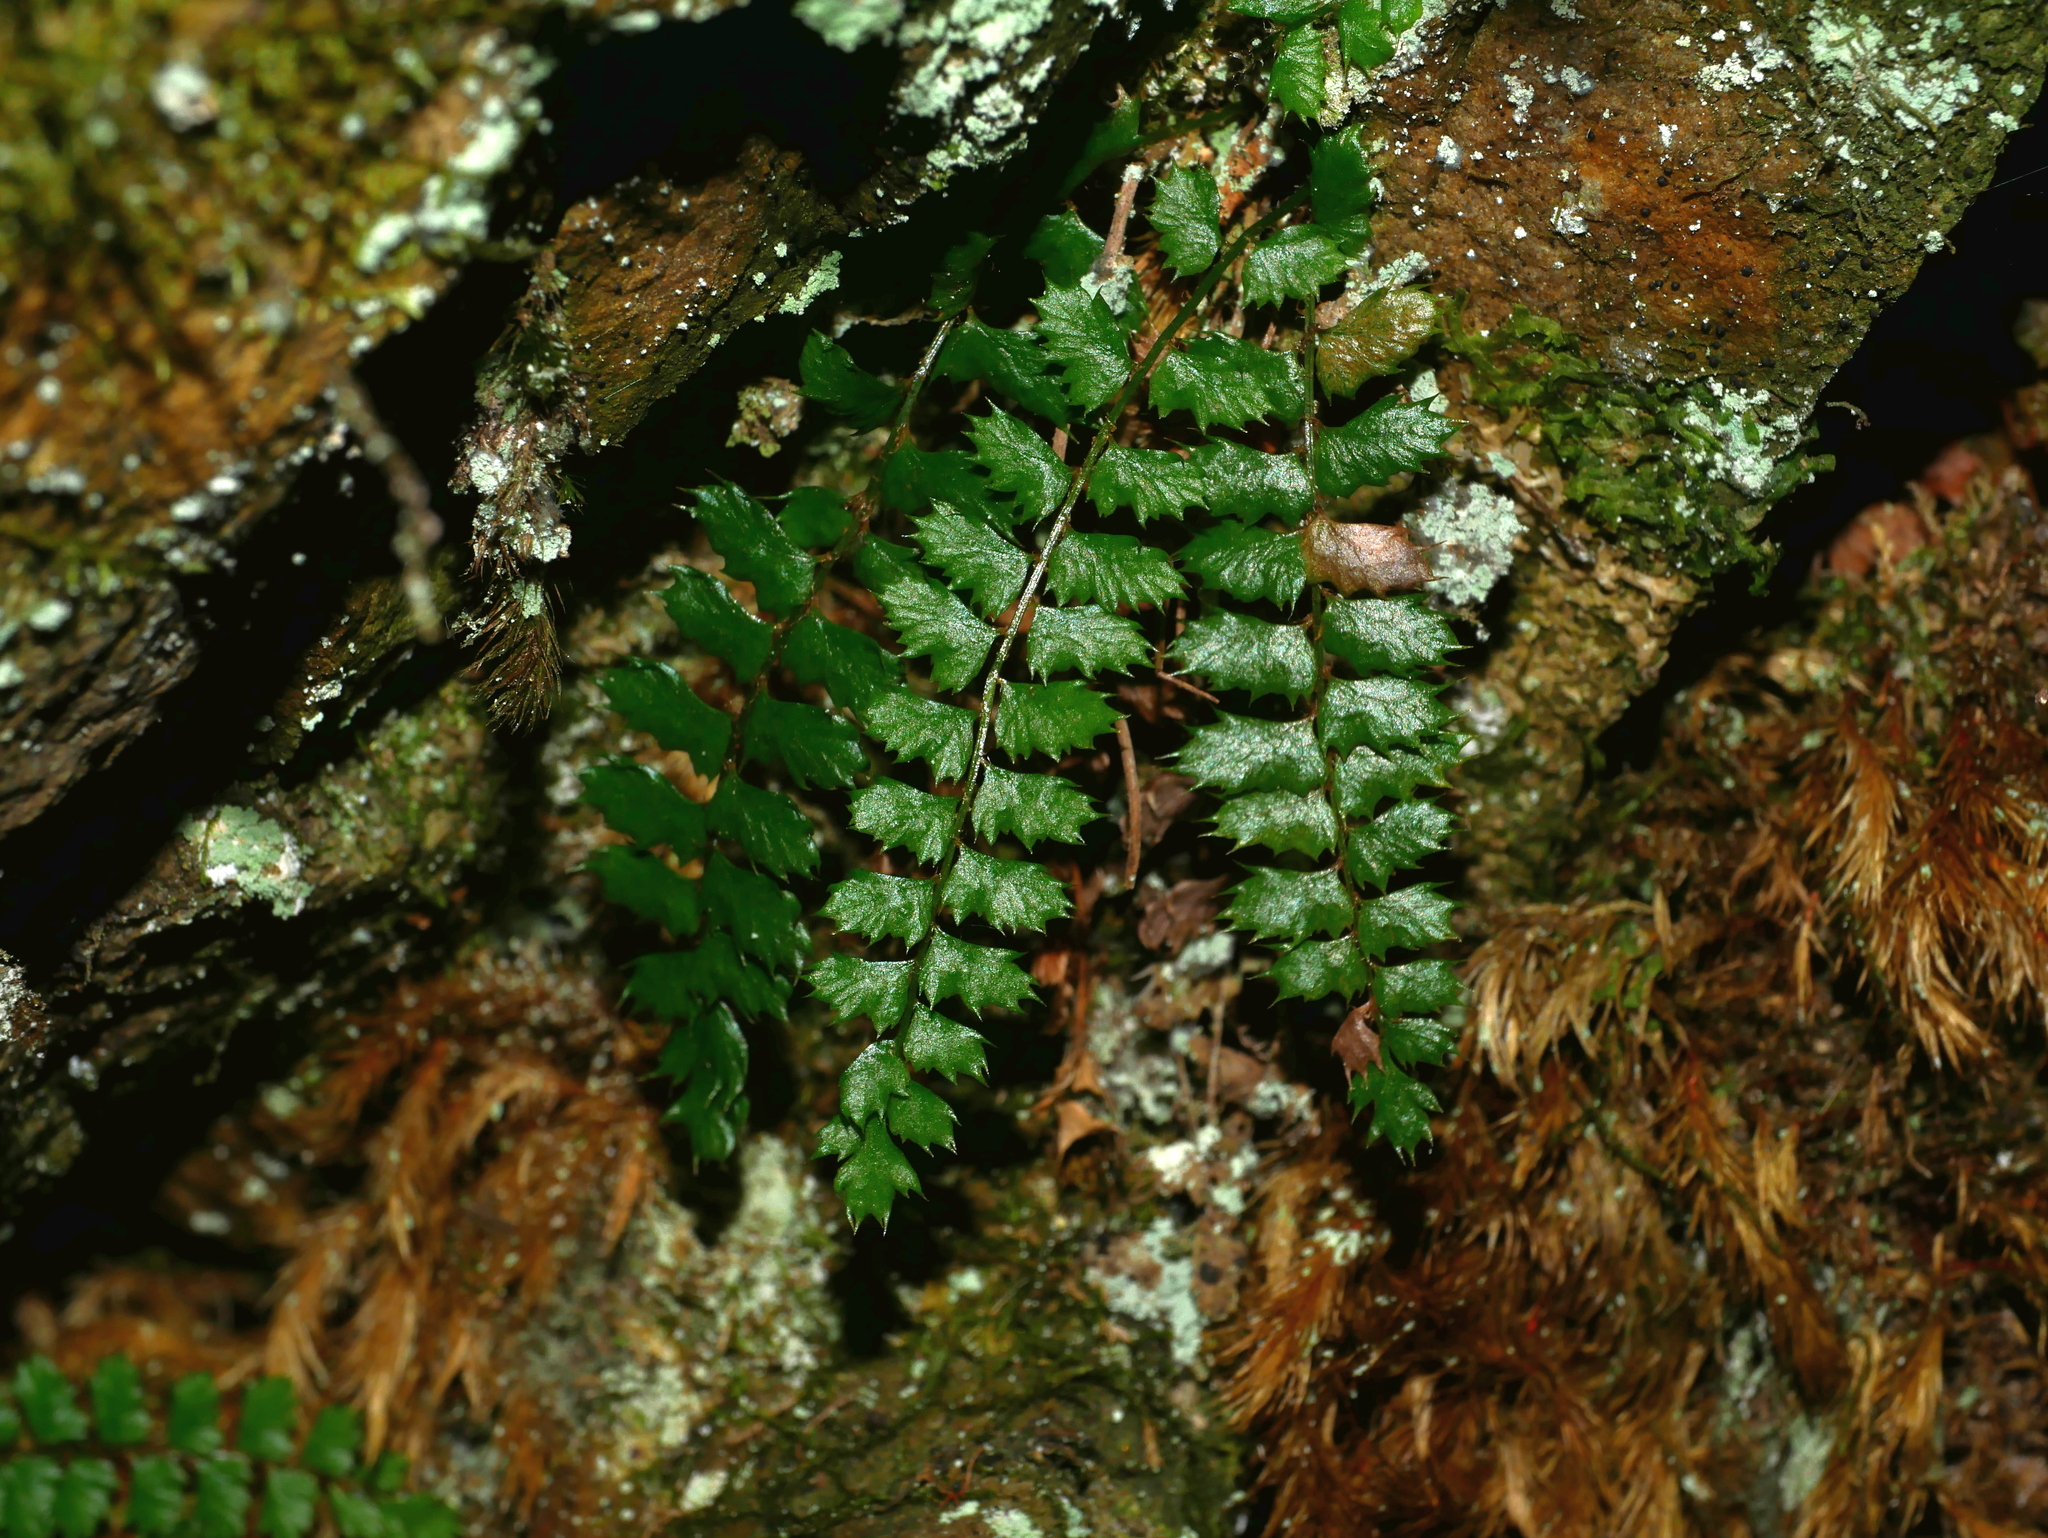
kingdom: Plantae
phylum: Tracheophyta
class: Polypodiopsida
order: Polypodiales
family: Dryopteridaceae
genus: Polystichum
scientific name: Polystichum atkinsonii
